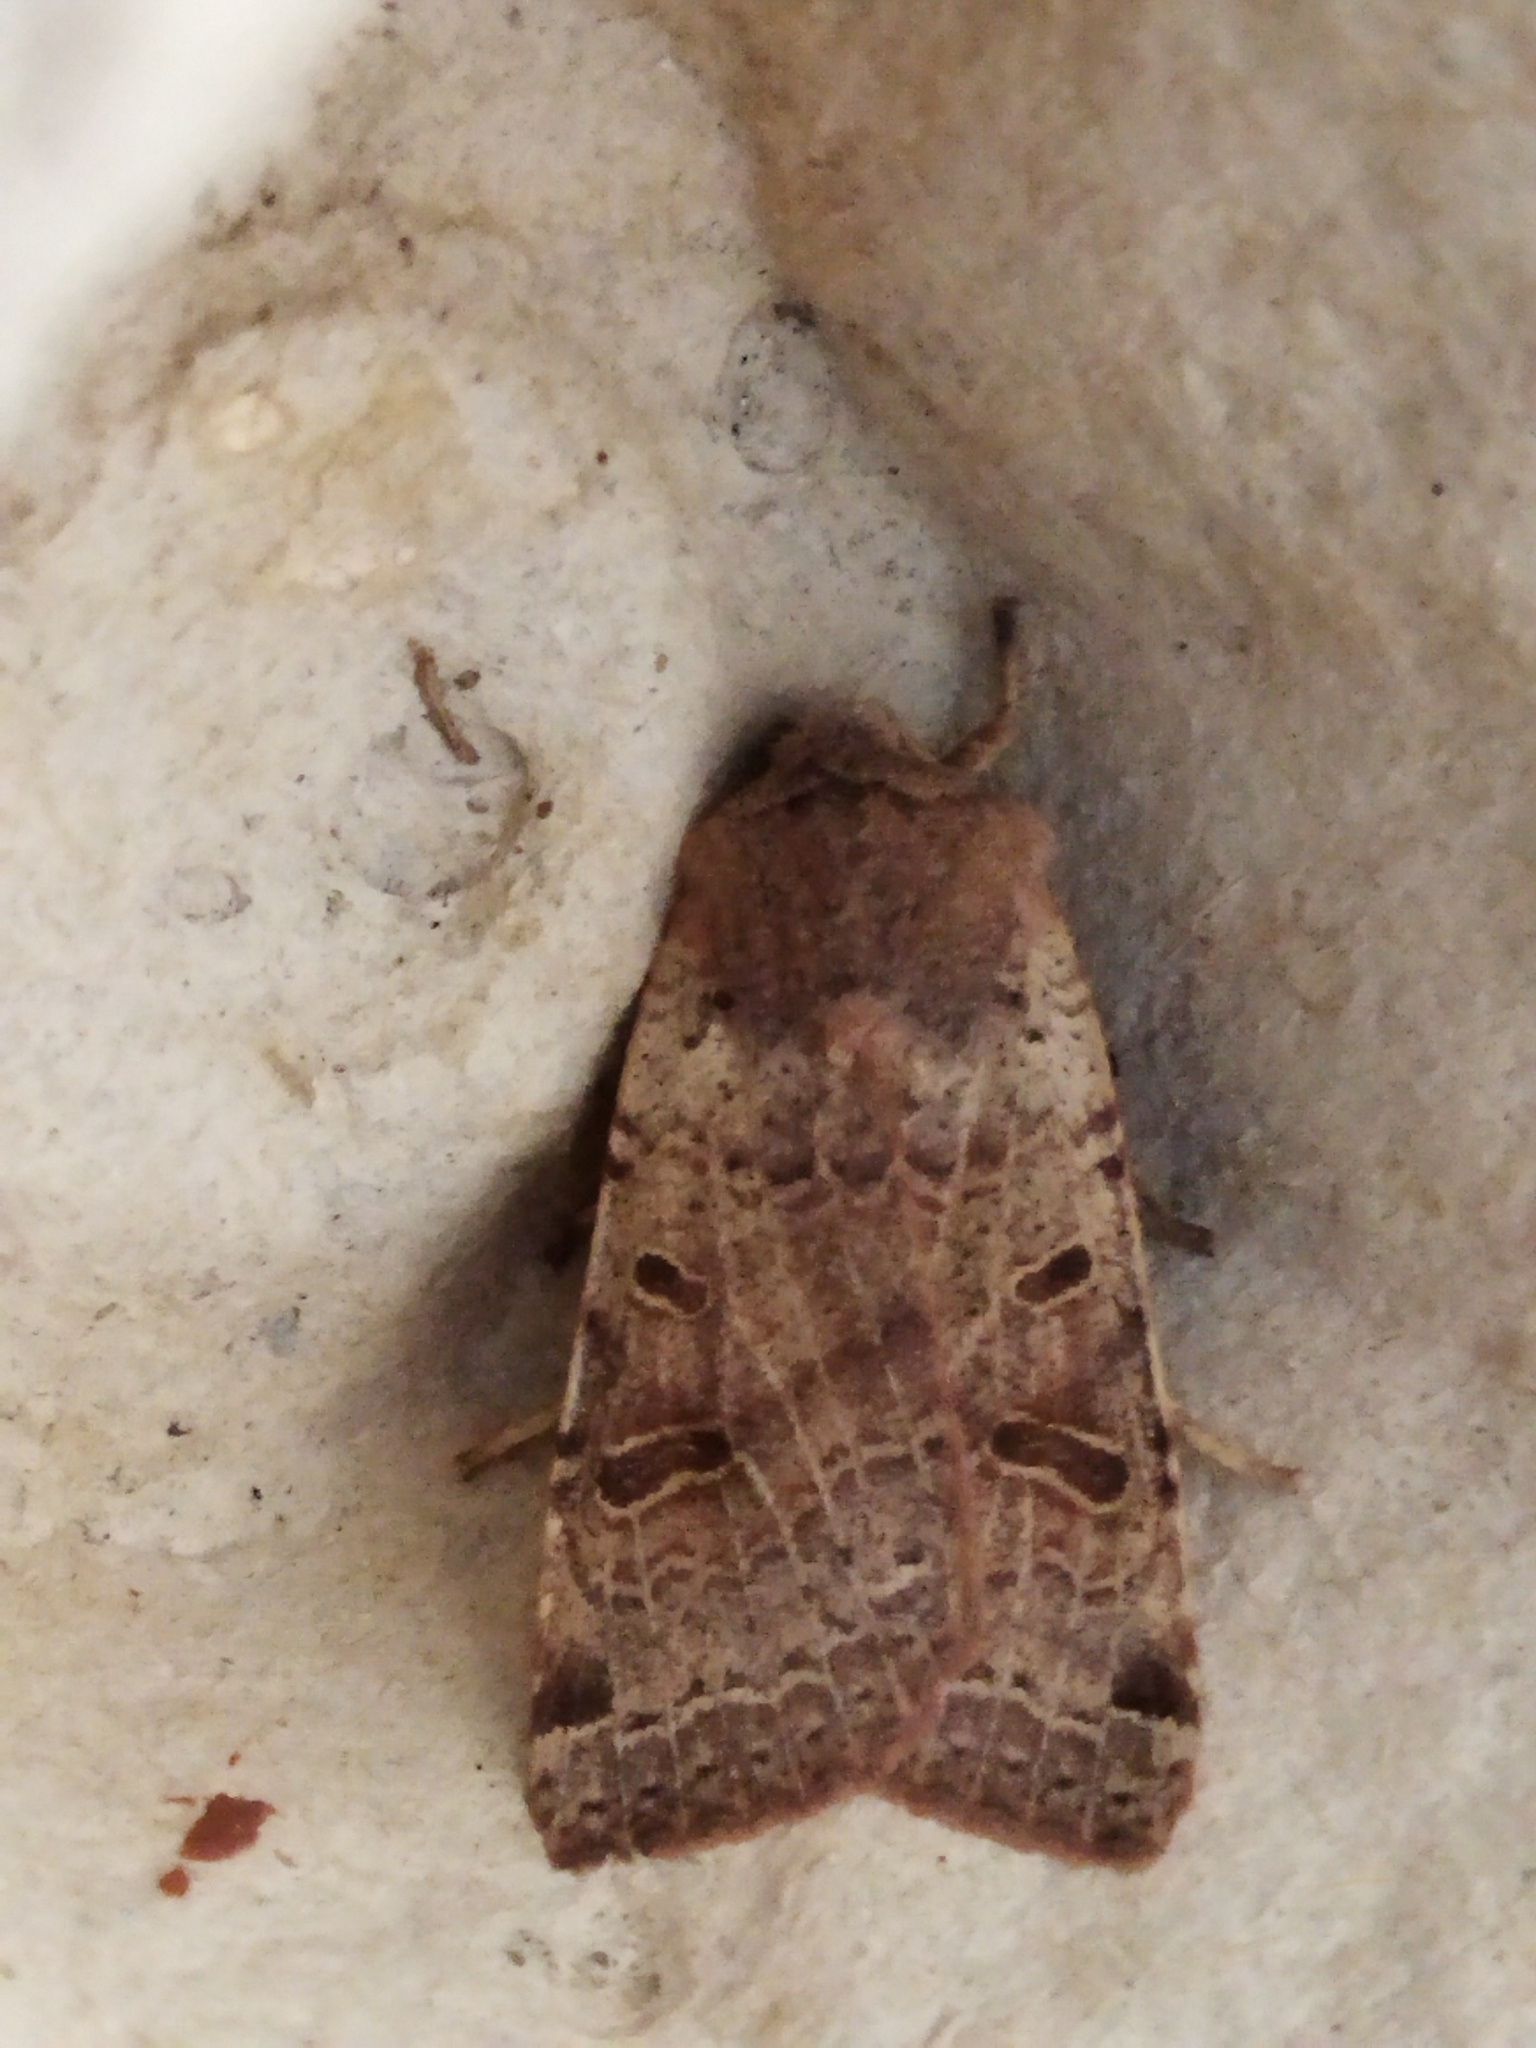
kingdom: Animalia
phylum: Arthropoda
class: Insecta
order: Lepidoptera
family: Noctuidae
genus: Agrochola
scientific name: Agrochola lychnidis
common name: Beaded chestnut
